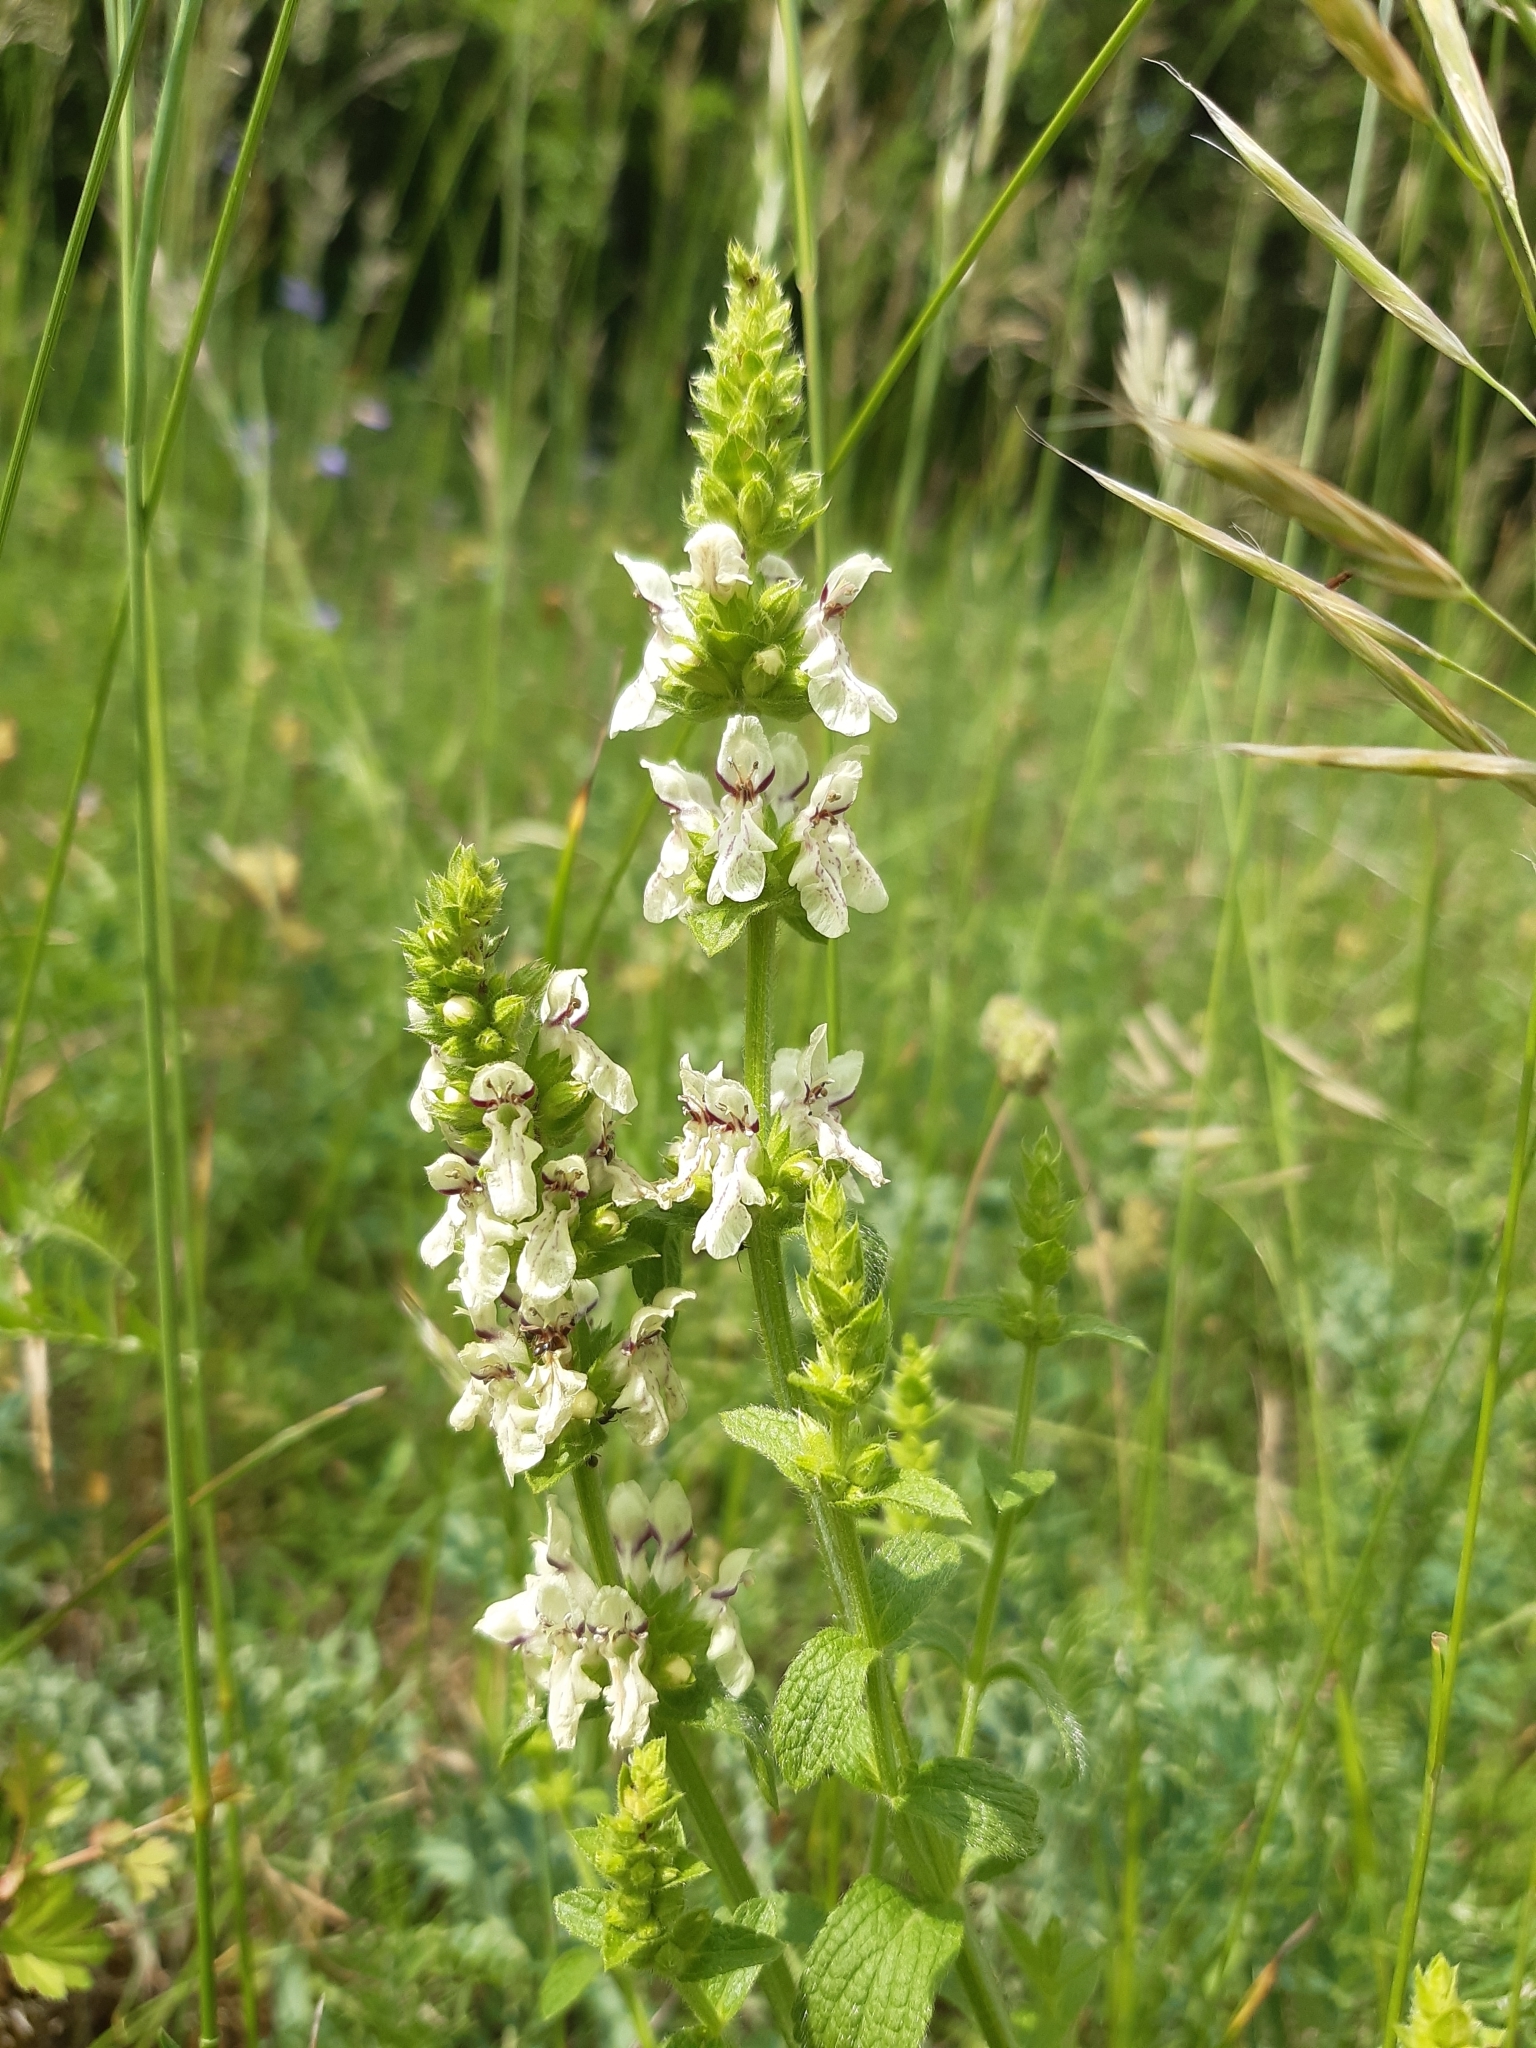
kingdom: Plantae
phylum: Tracheophyta
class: Magnoliopsida
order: Lamiales
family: Lamiaceae
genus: Stachys
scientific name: Stachys recta
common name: Perennial yellow-woundwort
